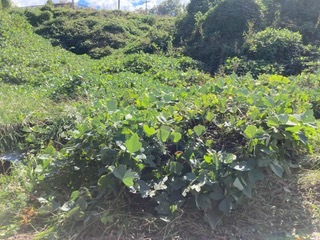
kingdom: Plantae
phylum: Tracheophyta
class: Magnoliopsida
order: Fabales
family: Fabaceae
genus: Pueraria
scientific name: Pueraria montana
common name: Kudzu
